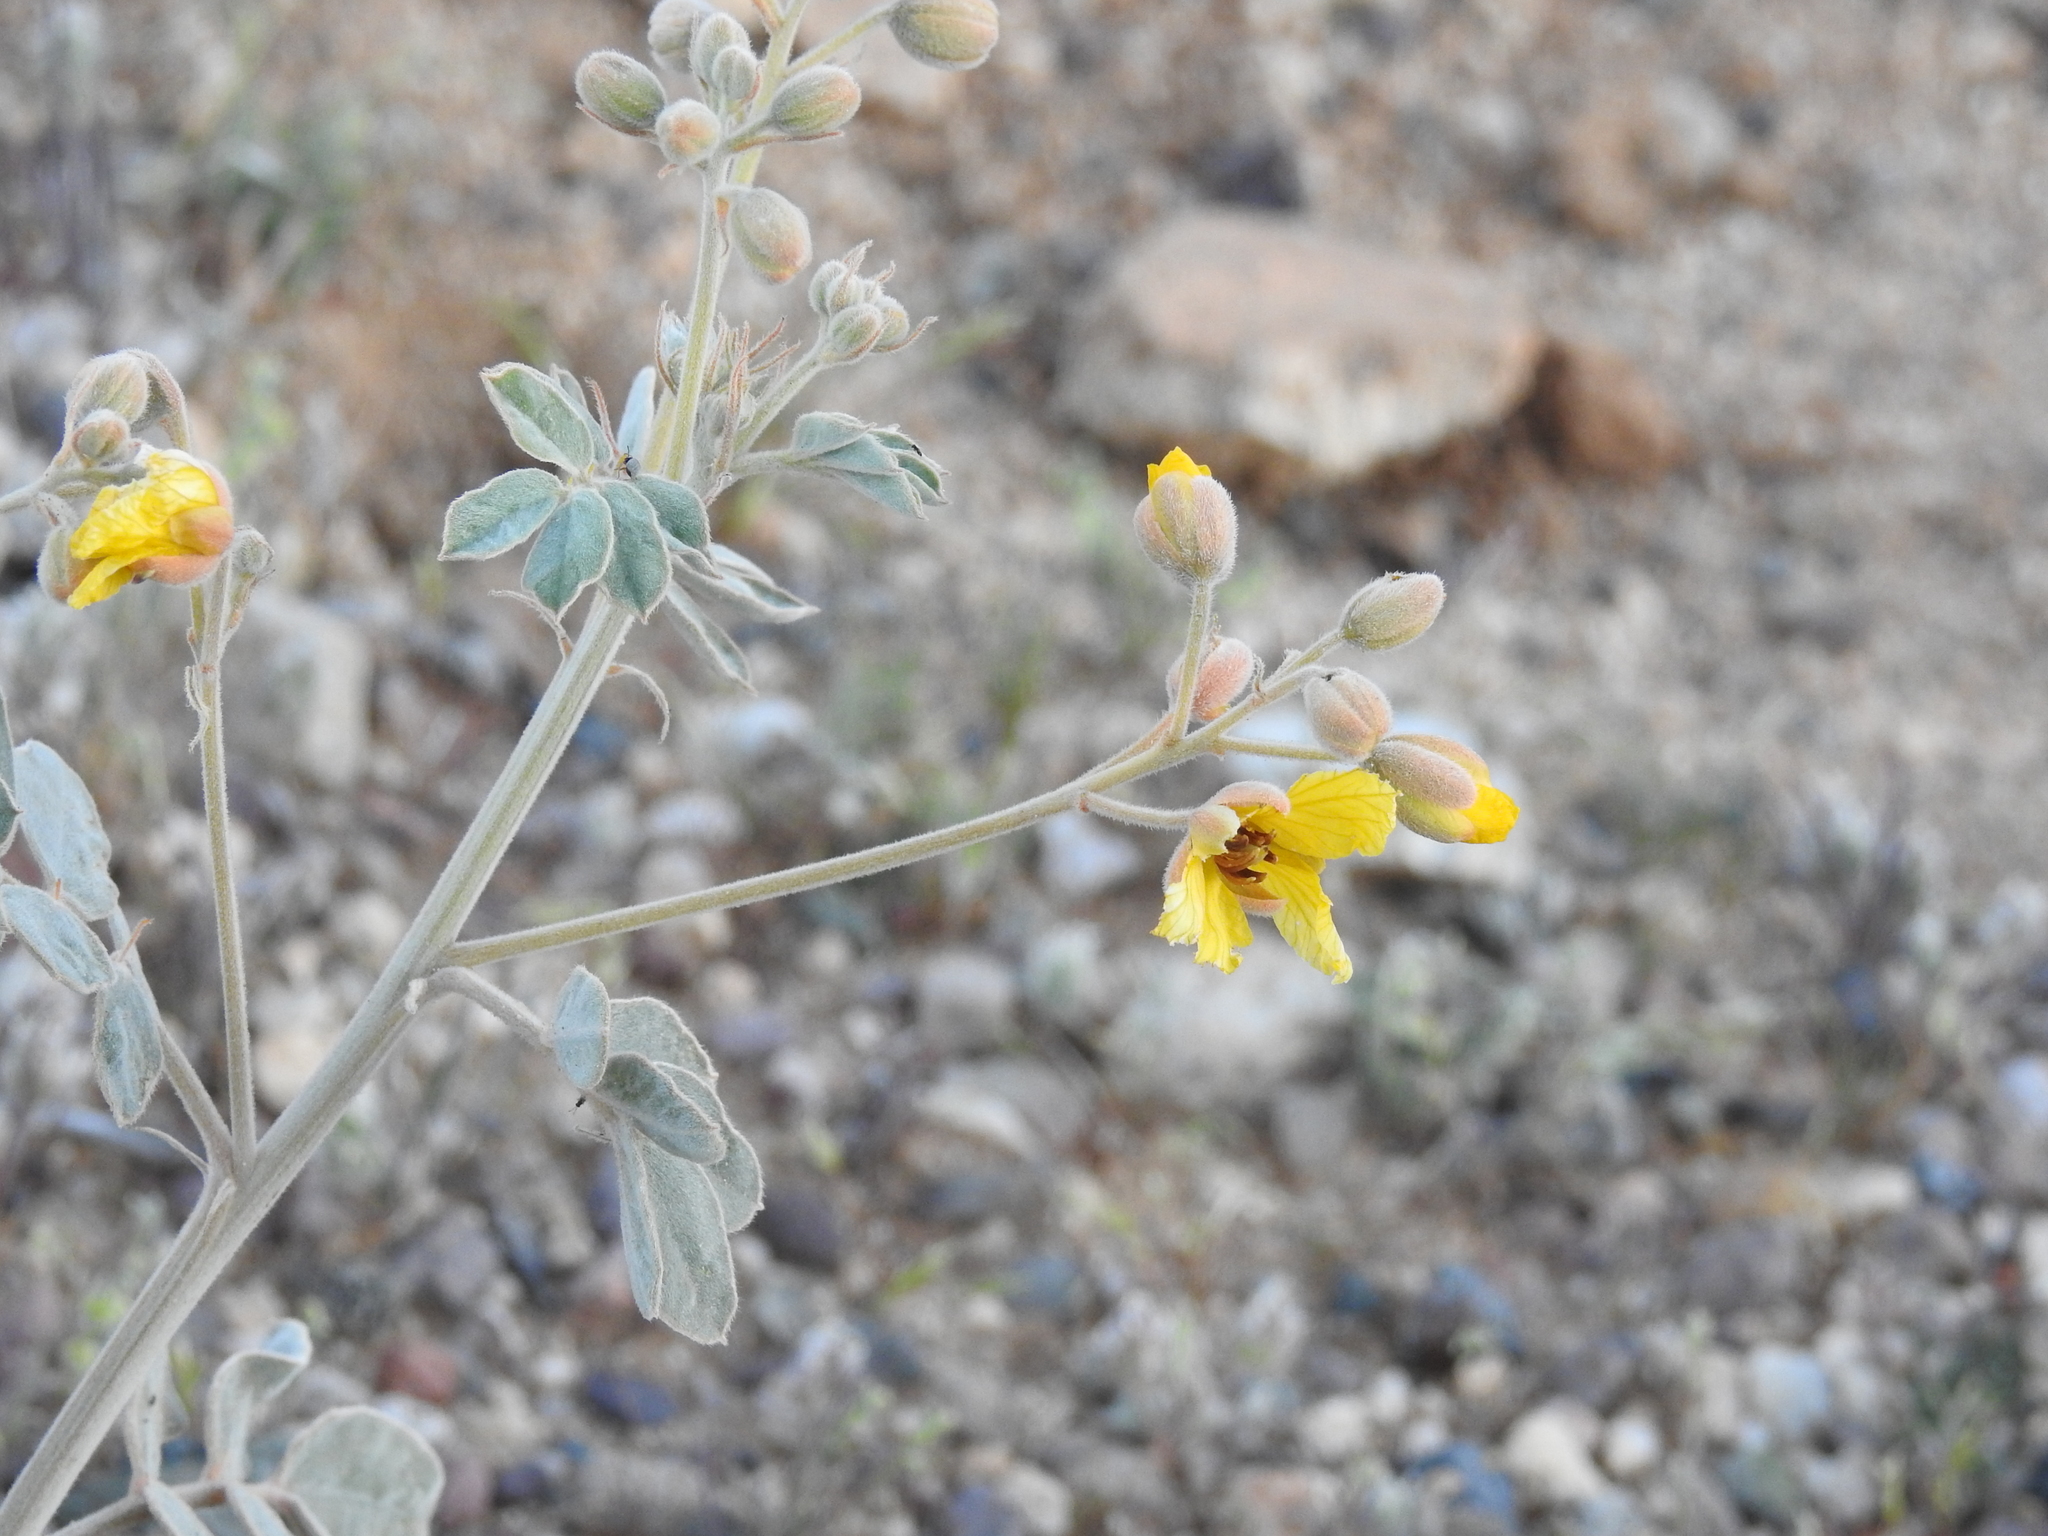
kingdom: Plantae
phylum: Tracheophyta
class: Magnoliopsida
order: Fabales
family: Fabaceae
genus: Senna
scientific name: Senna covesii
